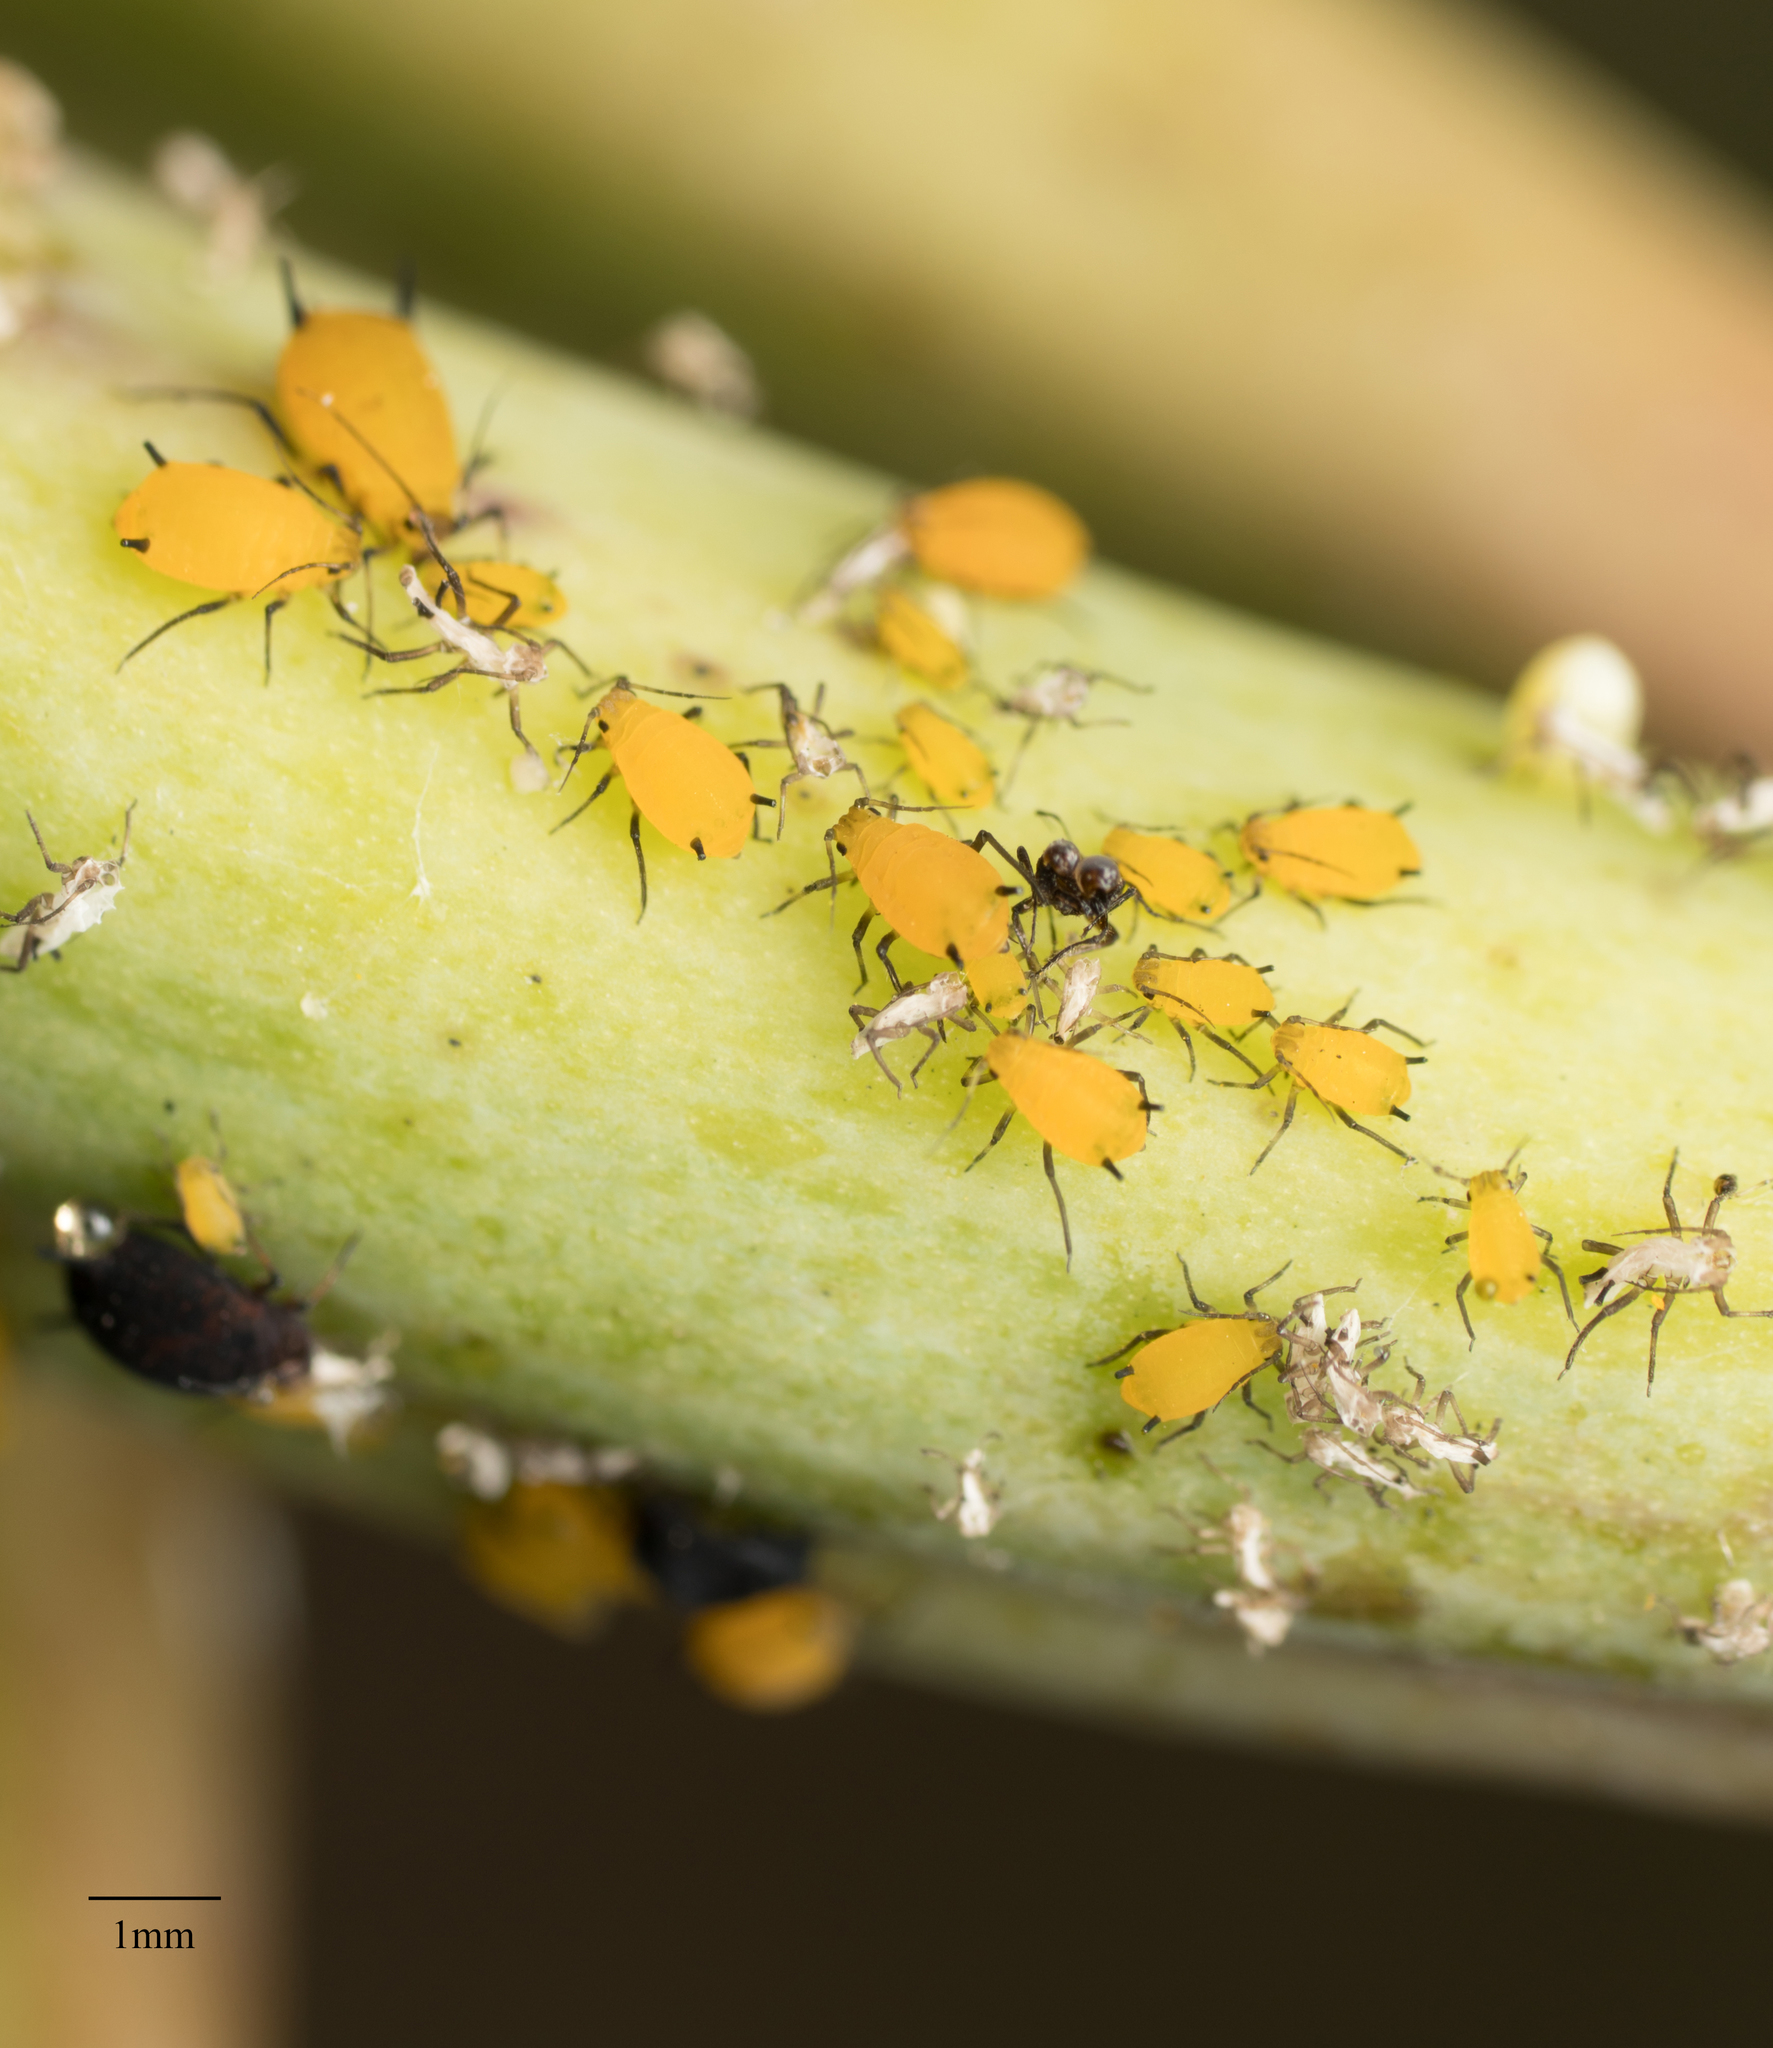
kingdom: Animalia
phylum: Arthropoda
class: Insecta
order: Hemiptera
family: Aphididae
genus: Aphis
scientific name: Aphis nerii
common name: Oleander aphid
